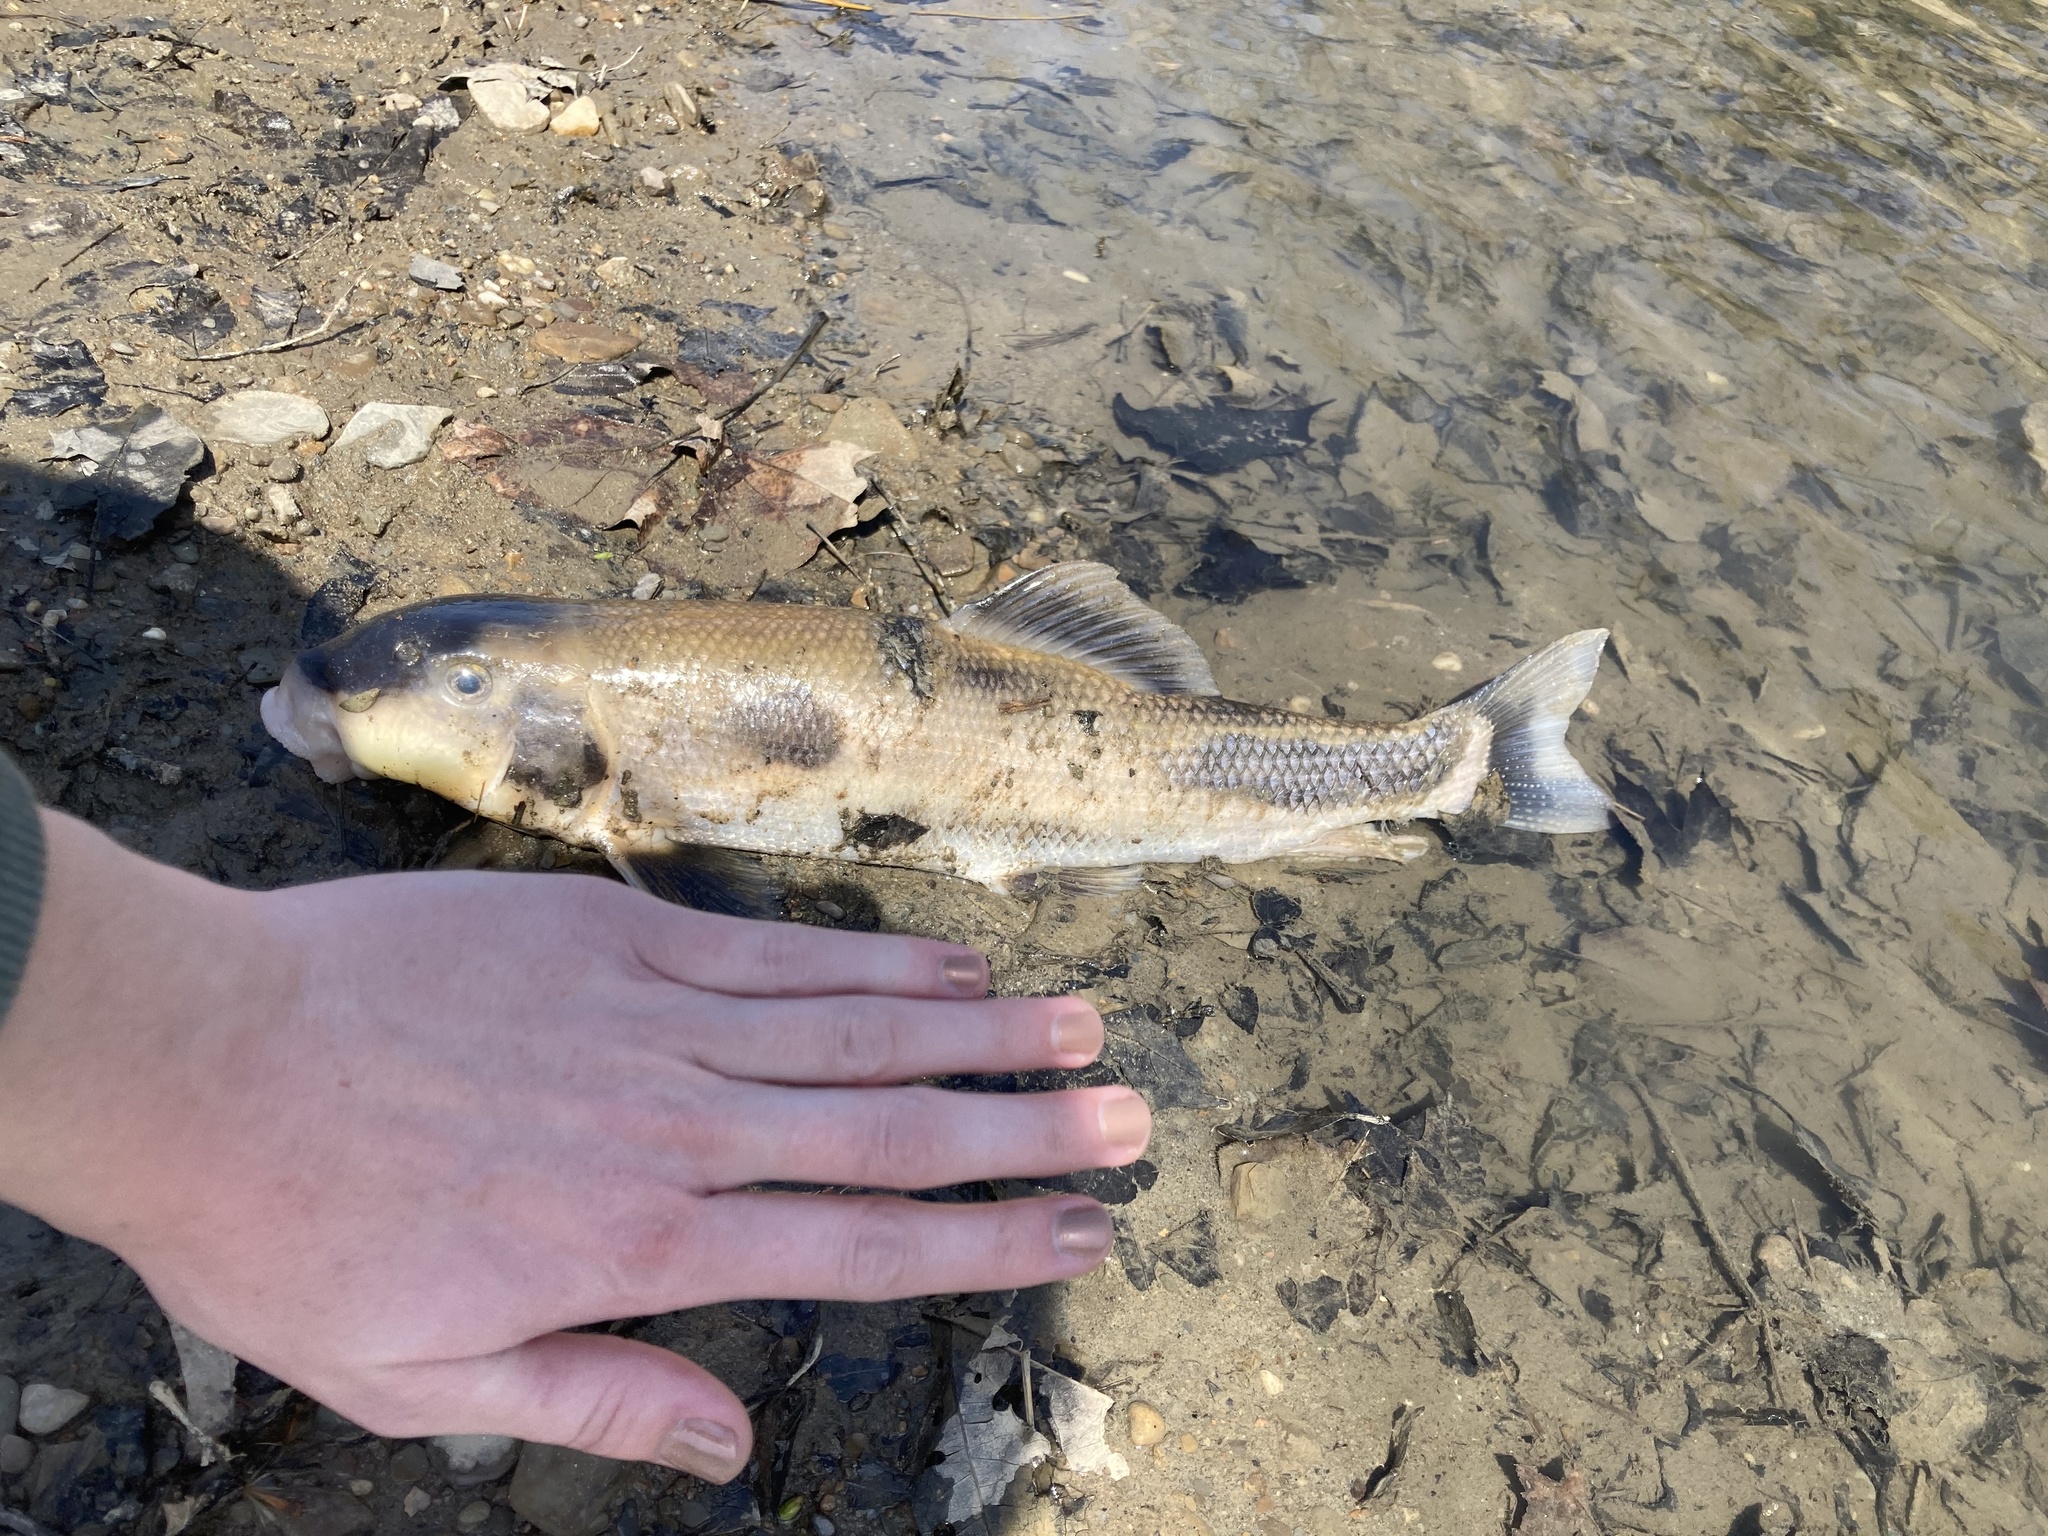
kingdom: Animalia
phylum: Chordata
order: Cypriniformes
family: Catostomidae
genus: Catostomus
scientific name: Catostomus commersonii
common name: White sucker
